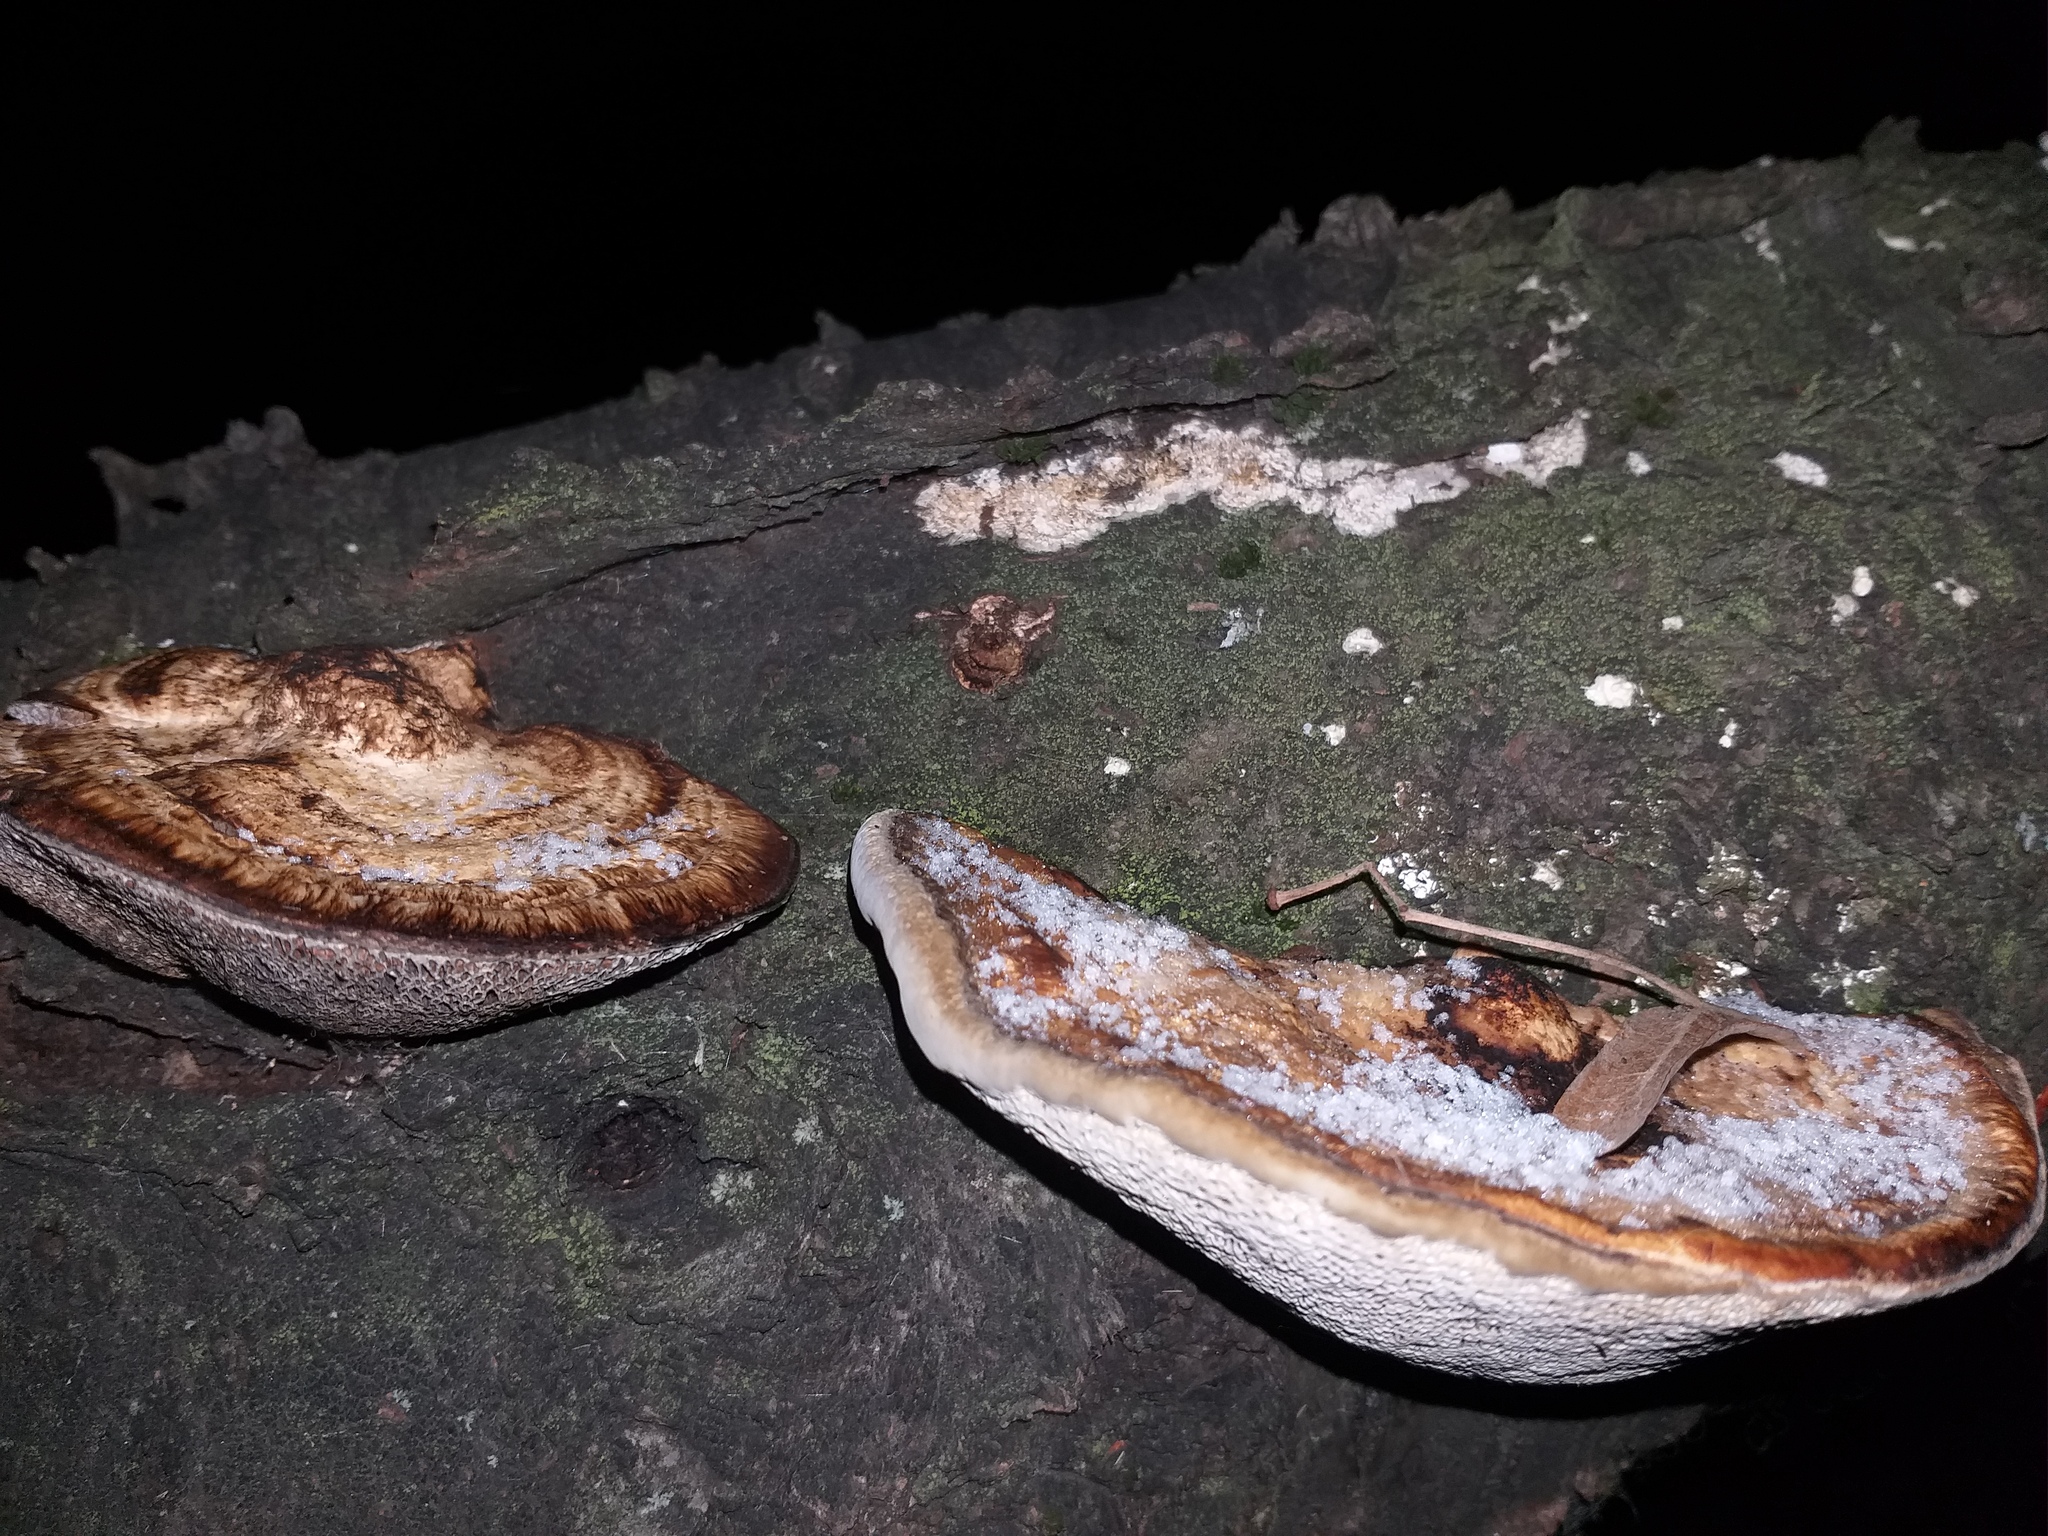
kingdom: Fungi
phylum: Basidiomycota
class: Agaricomycetes
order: Polyporales
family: Polyporaceae
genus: Daedaleopsis
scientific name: Daedaleopsis confragosa
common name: Blushing bracket
